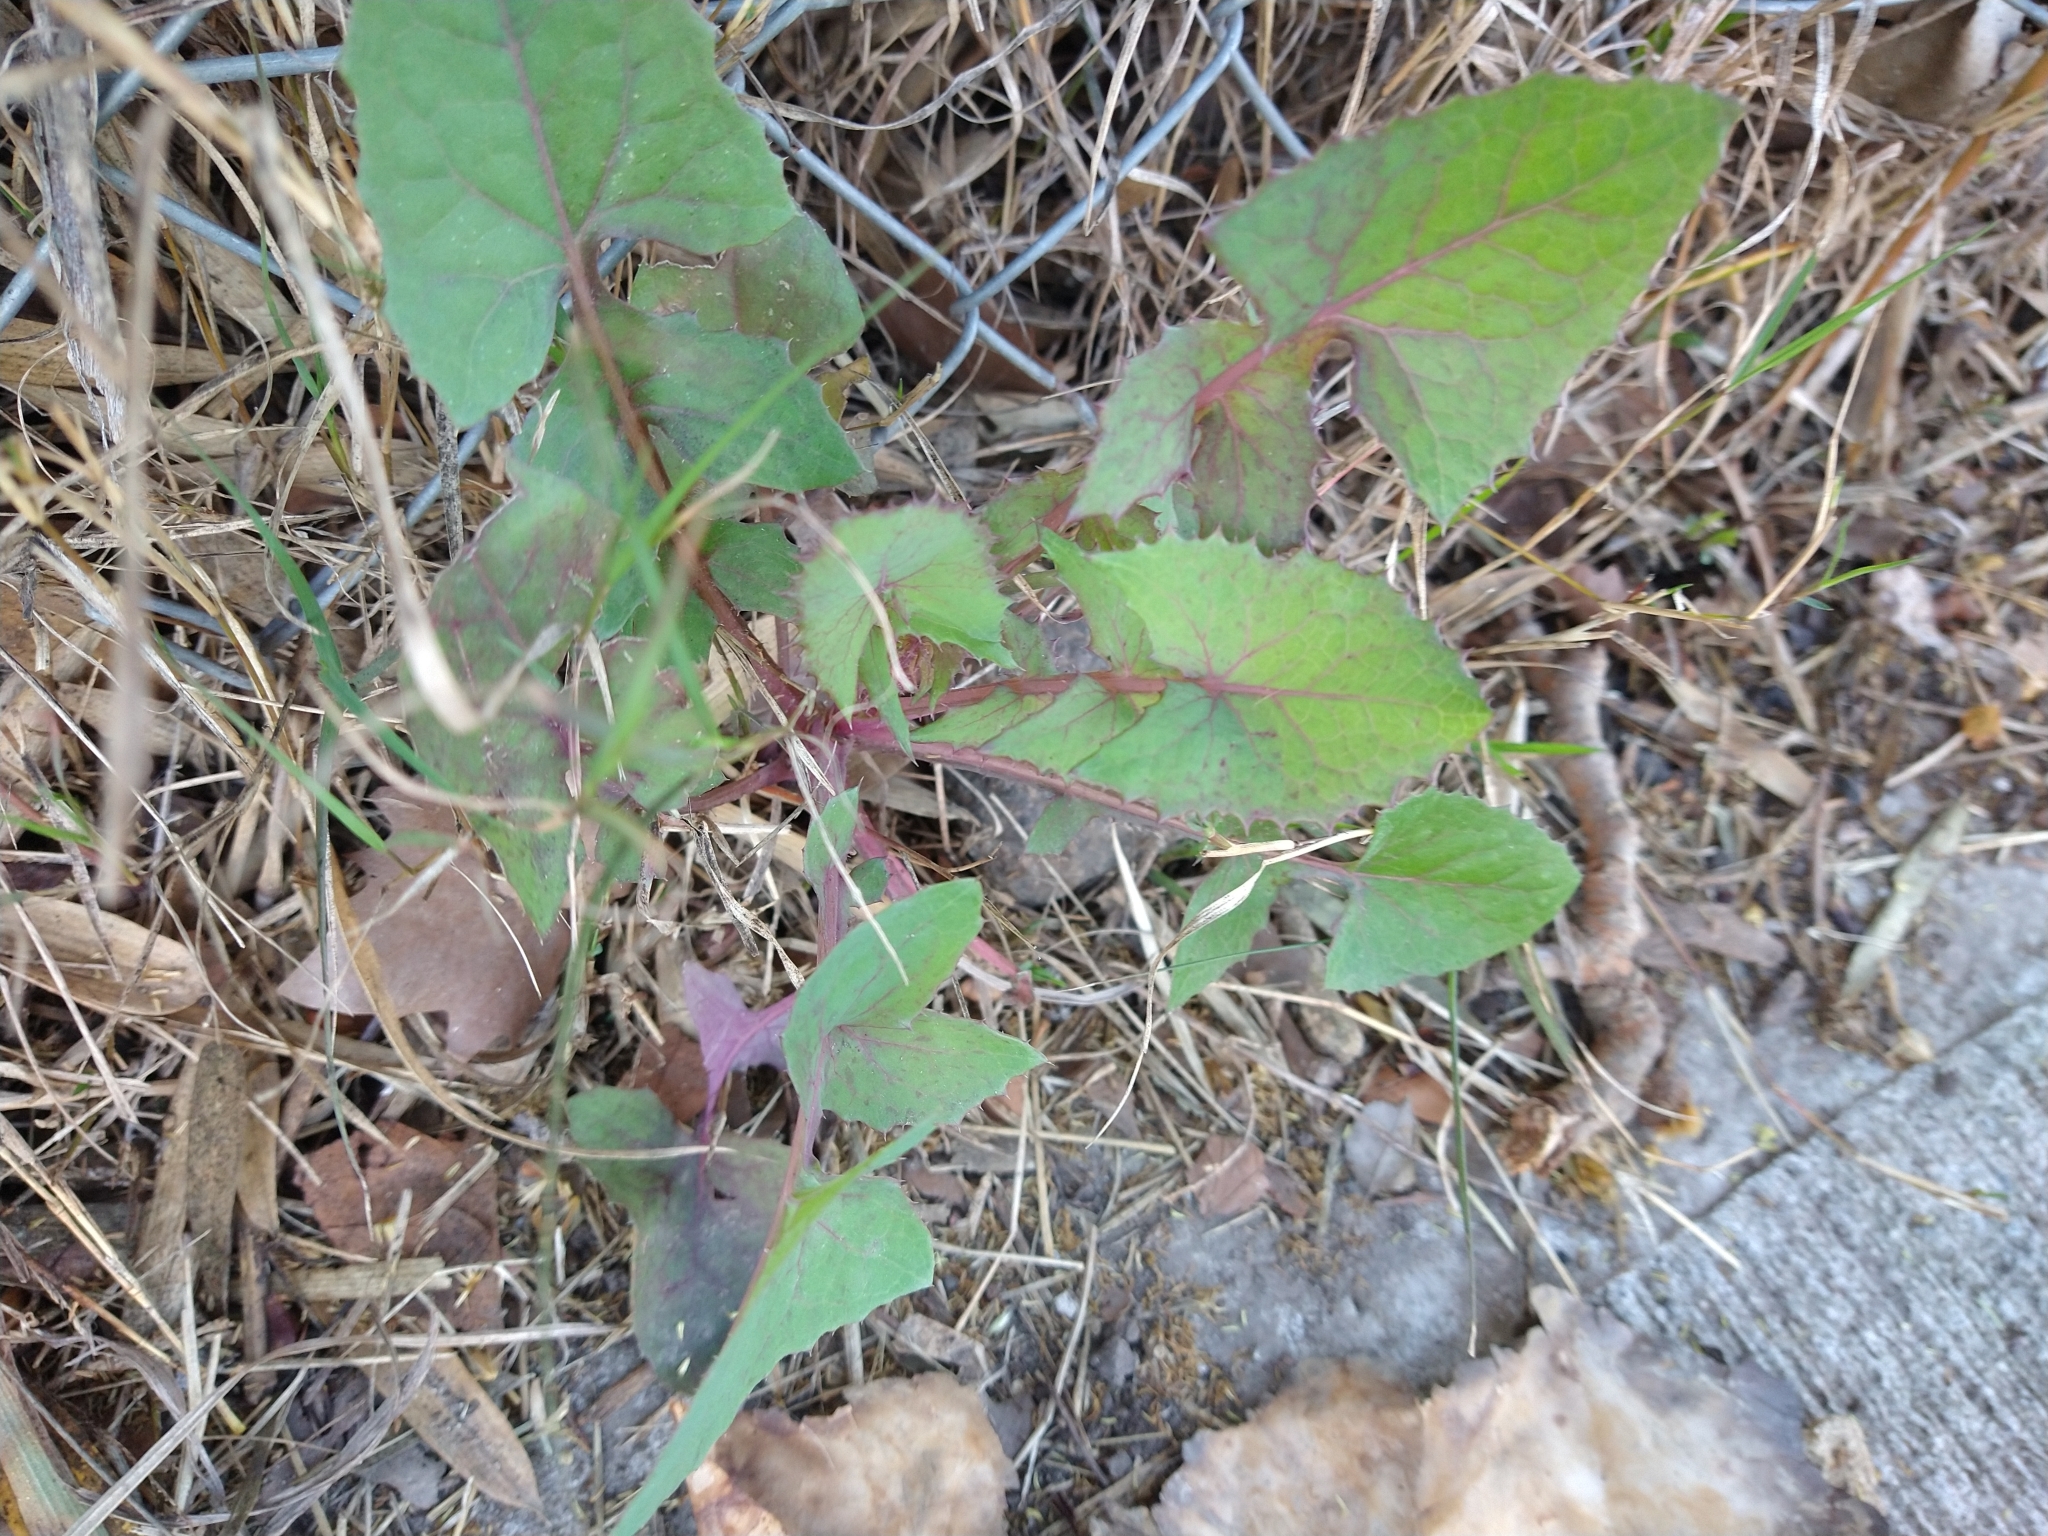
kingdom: Plantae
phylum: Tracheophyta
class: Magnoliopsida
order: Asterales
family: Asteraceae
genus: Sonchus
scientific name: Sonchus oleraceus
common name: Common sowthistle
